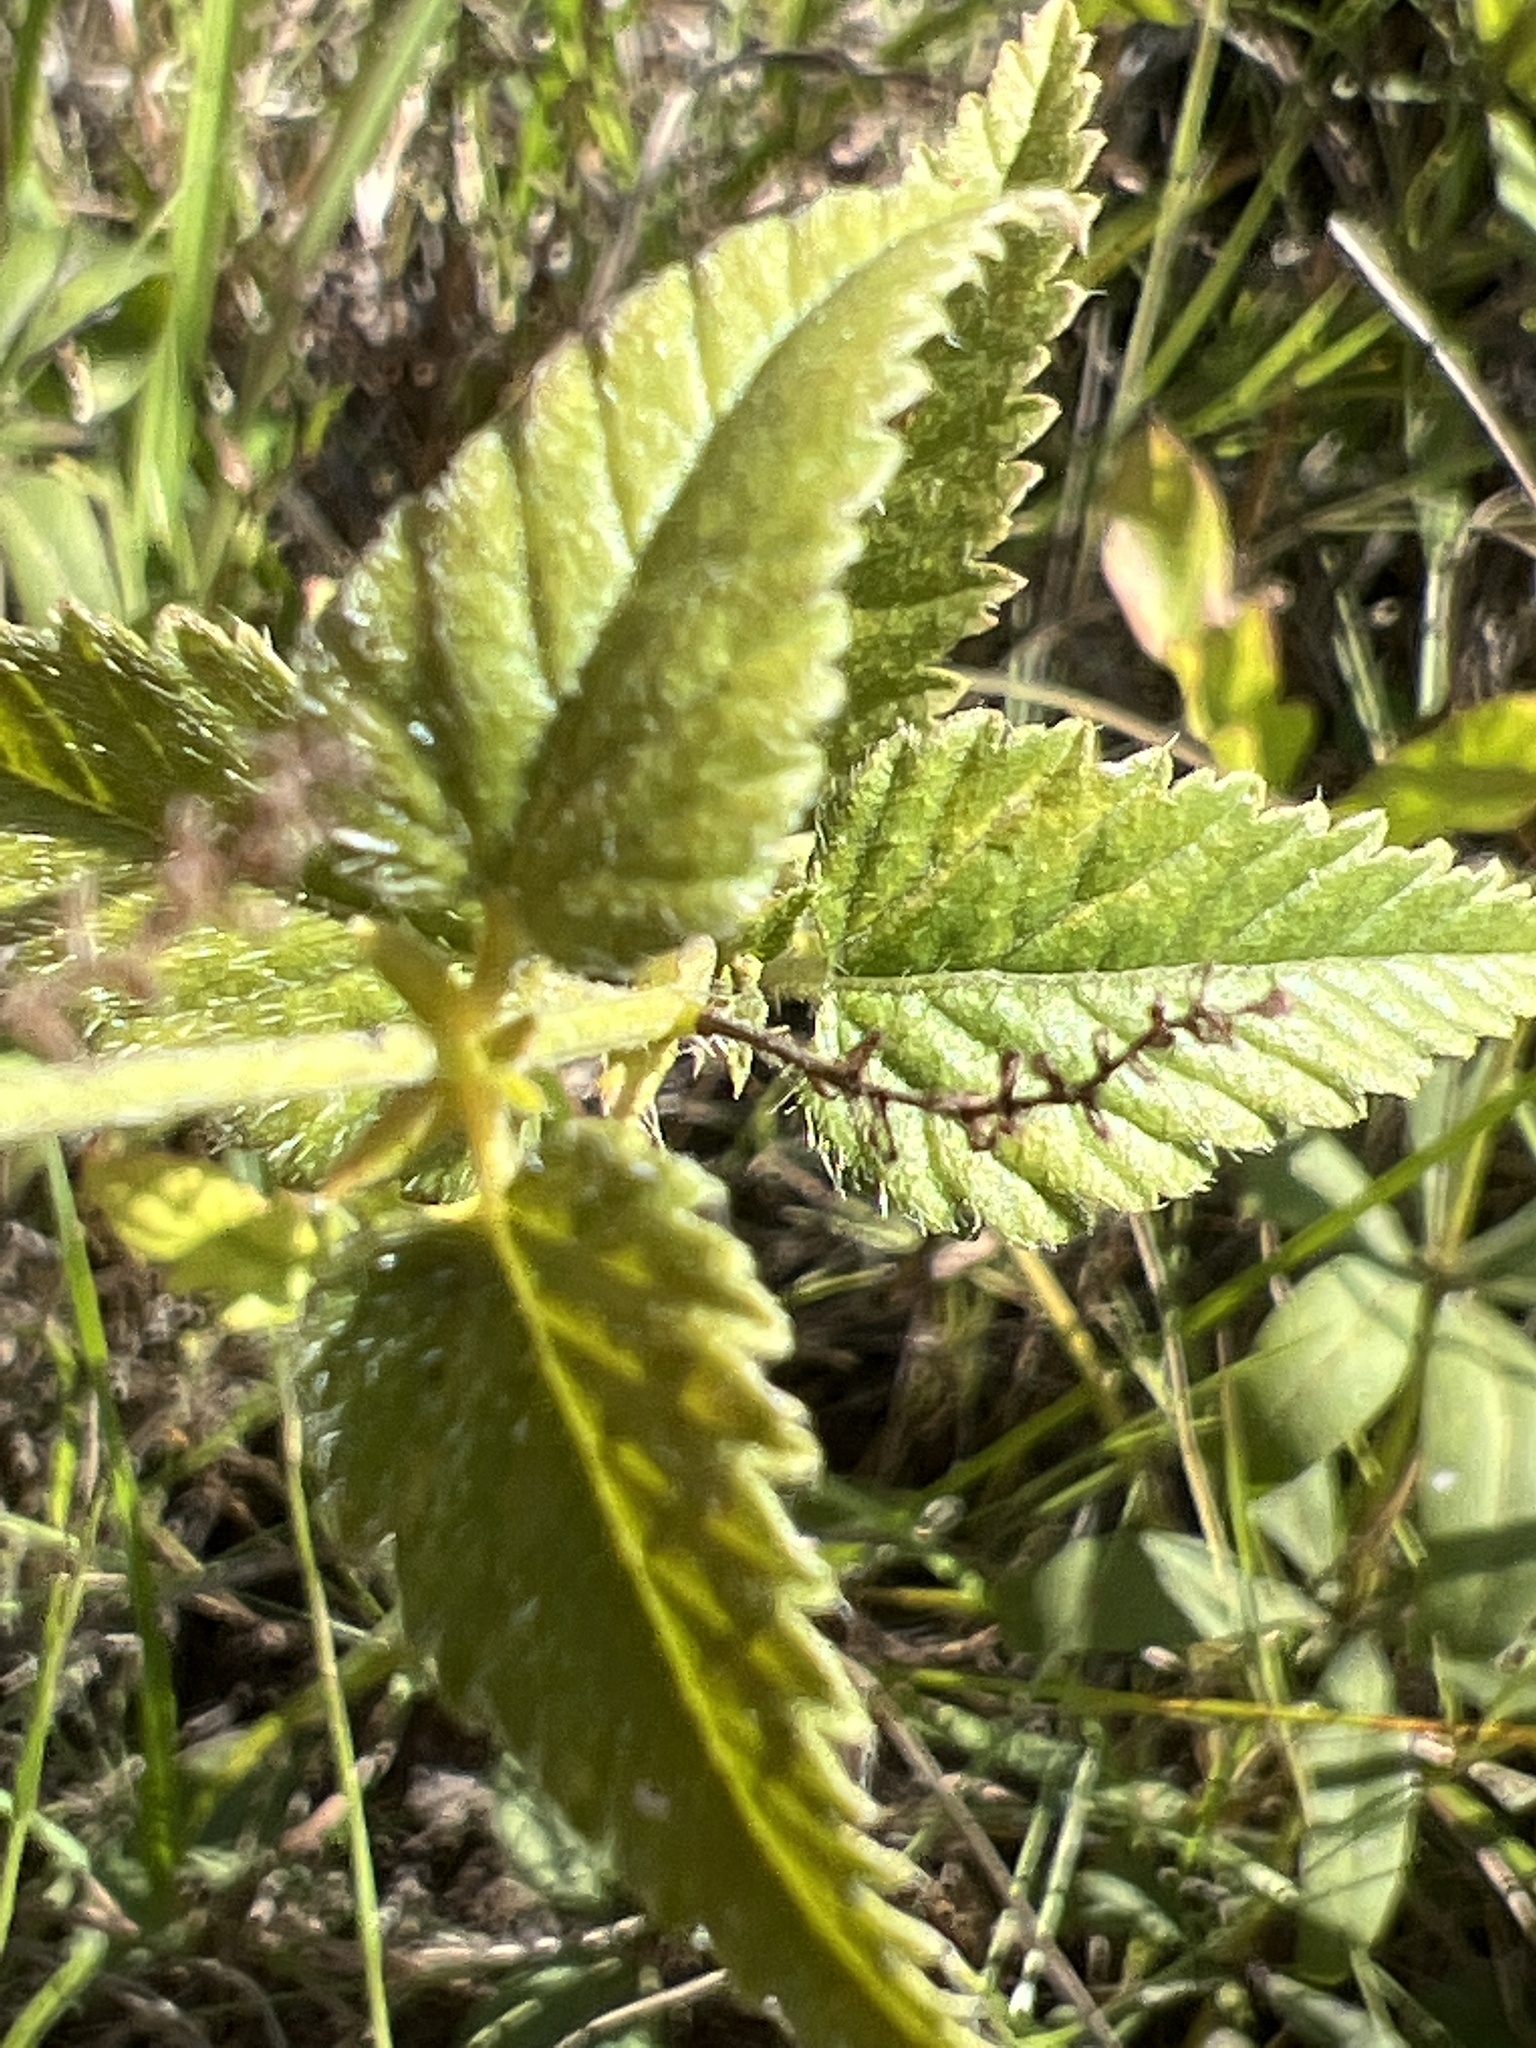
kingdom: Plantae
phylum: Tracheophyta
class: Magnoliopsida
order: Malpighiales
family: Euphorbiaceae
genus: Tragia
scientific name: Tragia urticifolia
